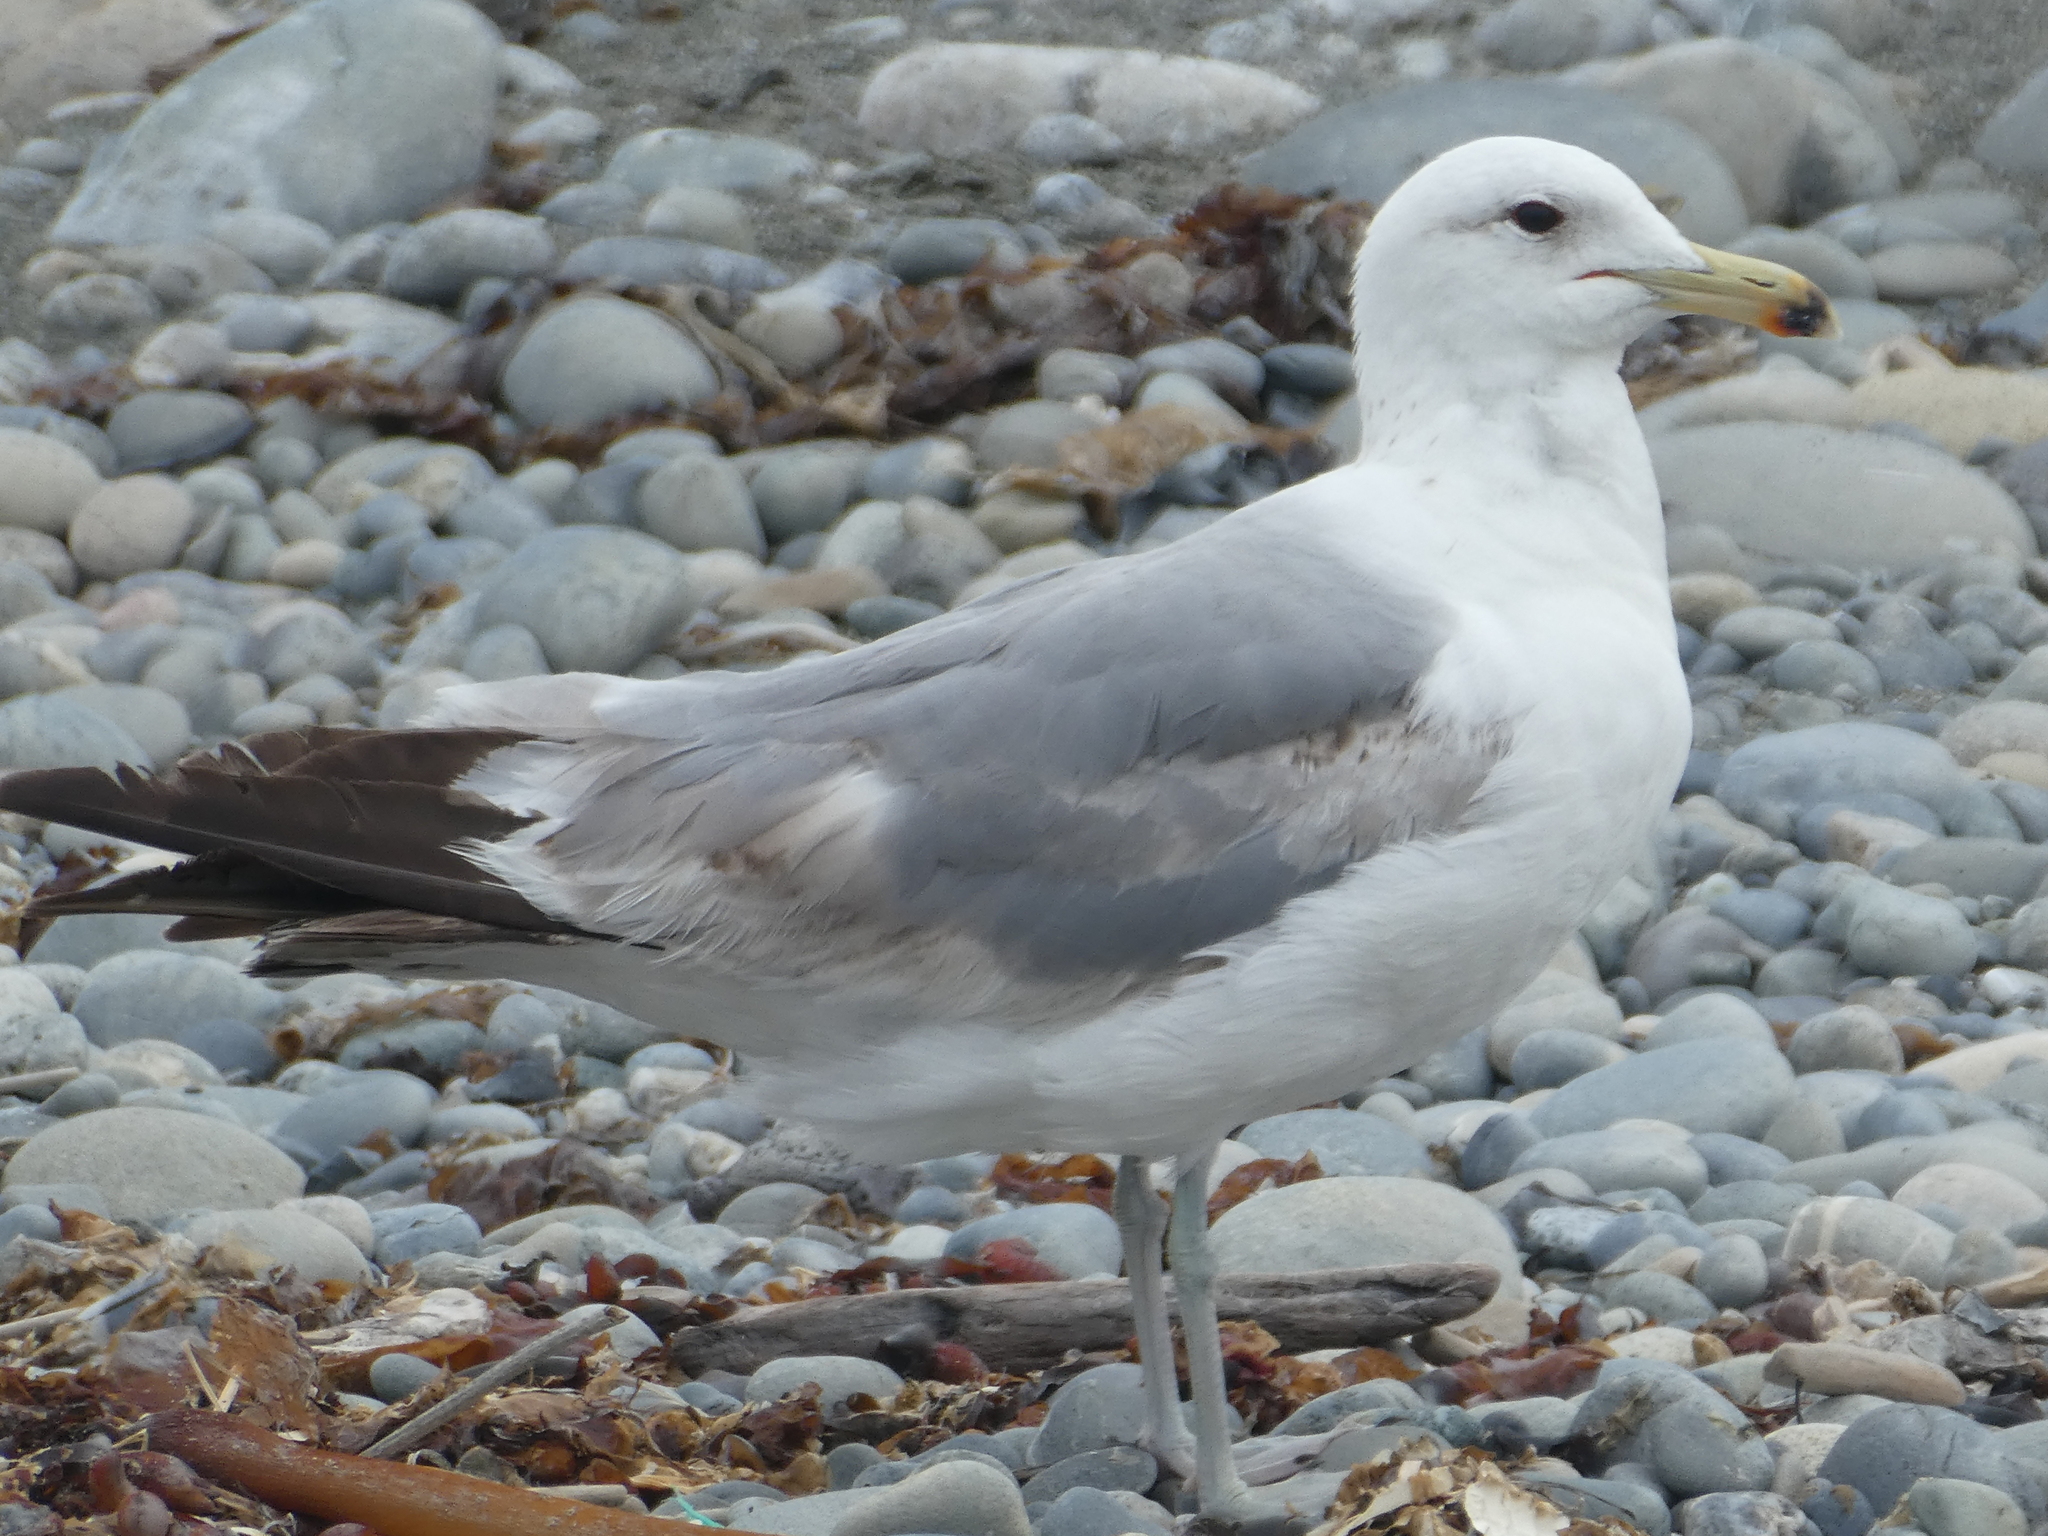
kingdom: Animalia
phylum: Chordata
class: Aves
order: Charadriiformes
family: Laridae
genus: Larus
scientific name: Larus californicus
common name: California gull
